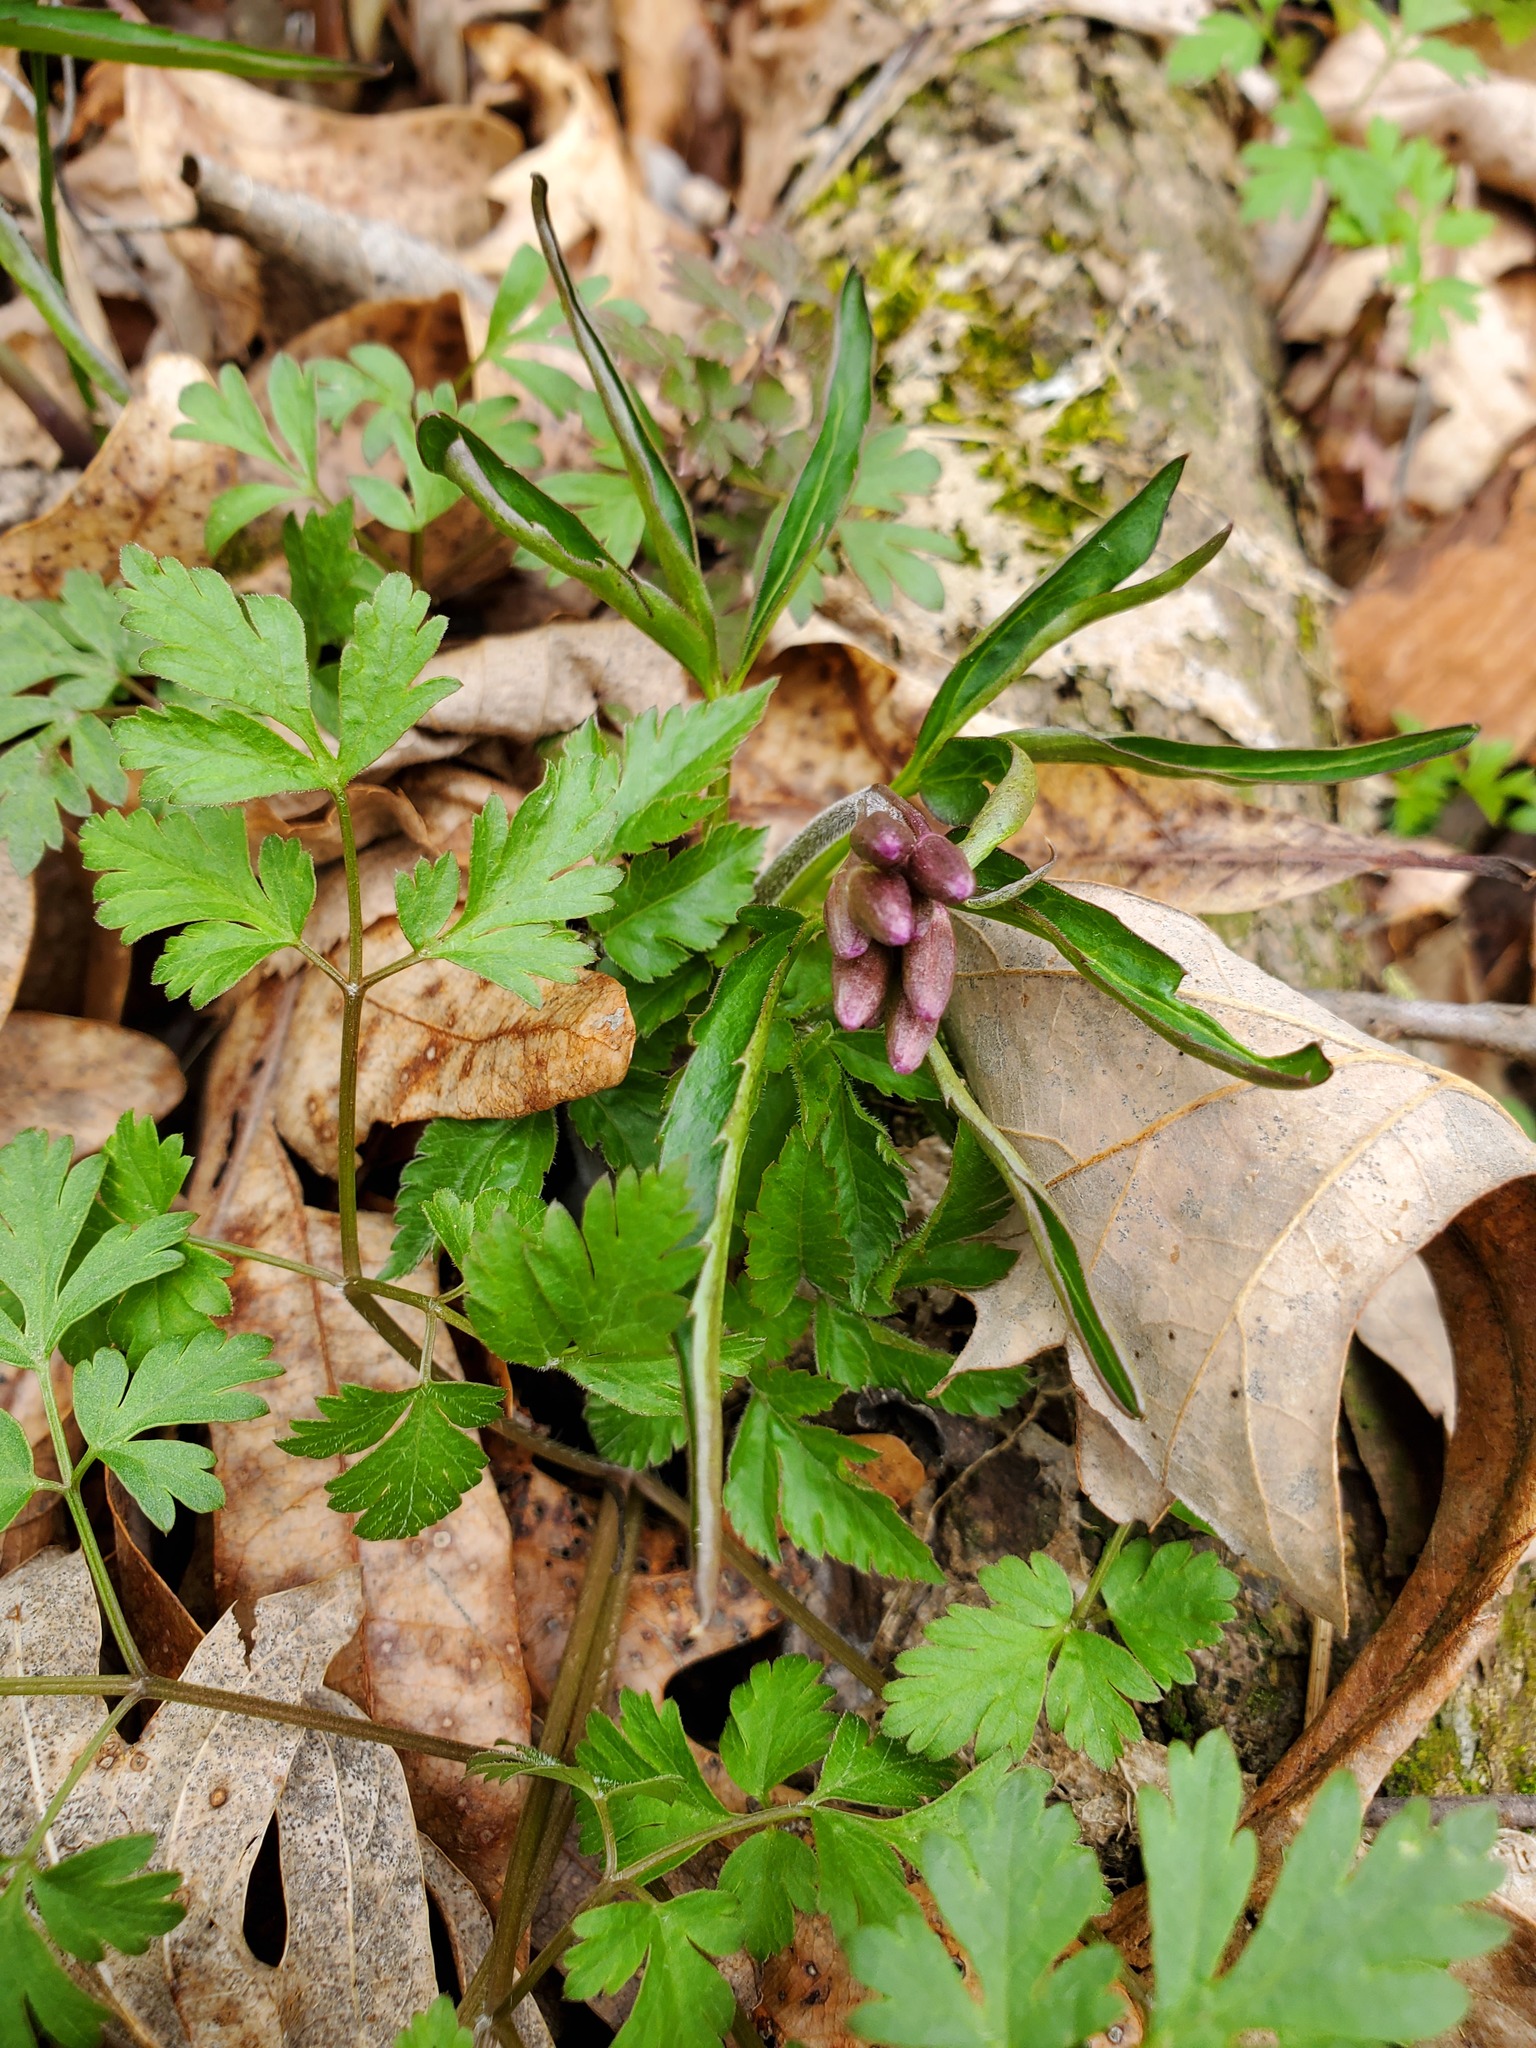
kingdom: Plantae
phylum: Tracheophyta
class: Magnoliopsida
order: Brassicales
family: Brassicaceae
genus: Cardamine
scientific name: Cardamine concatenata
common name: Cut-leaf toothcup
